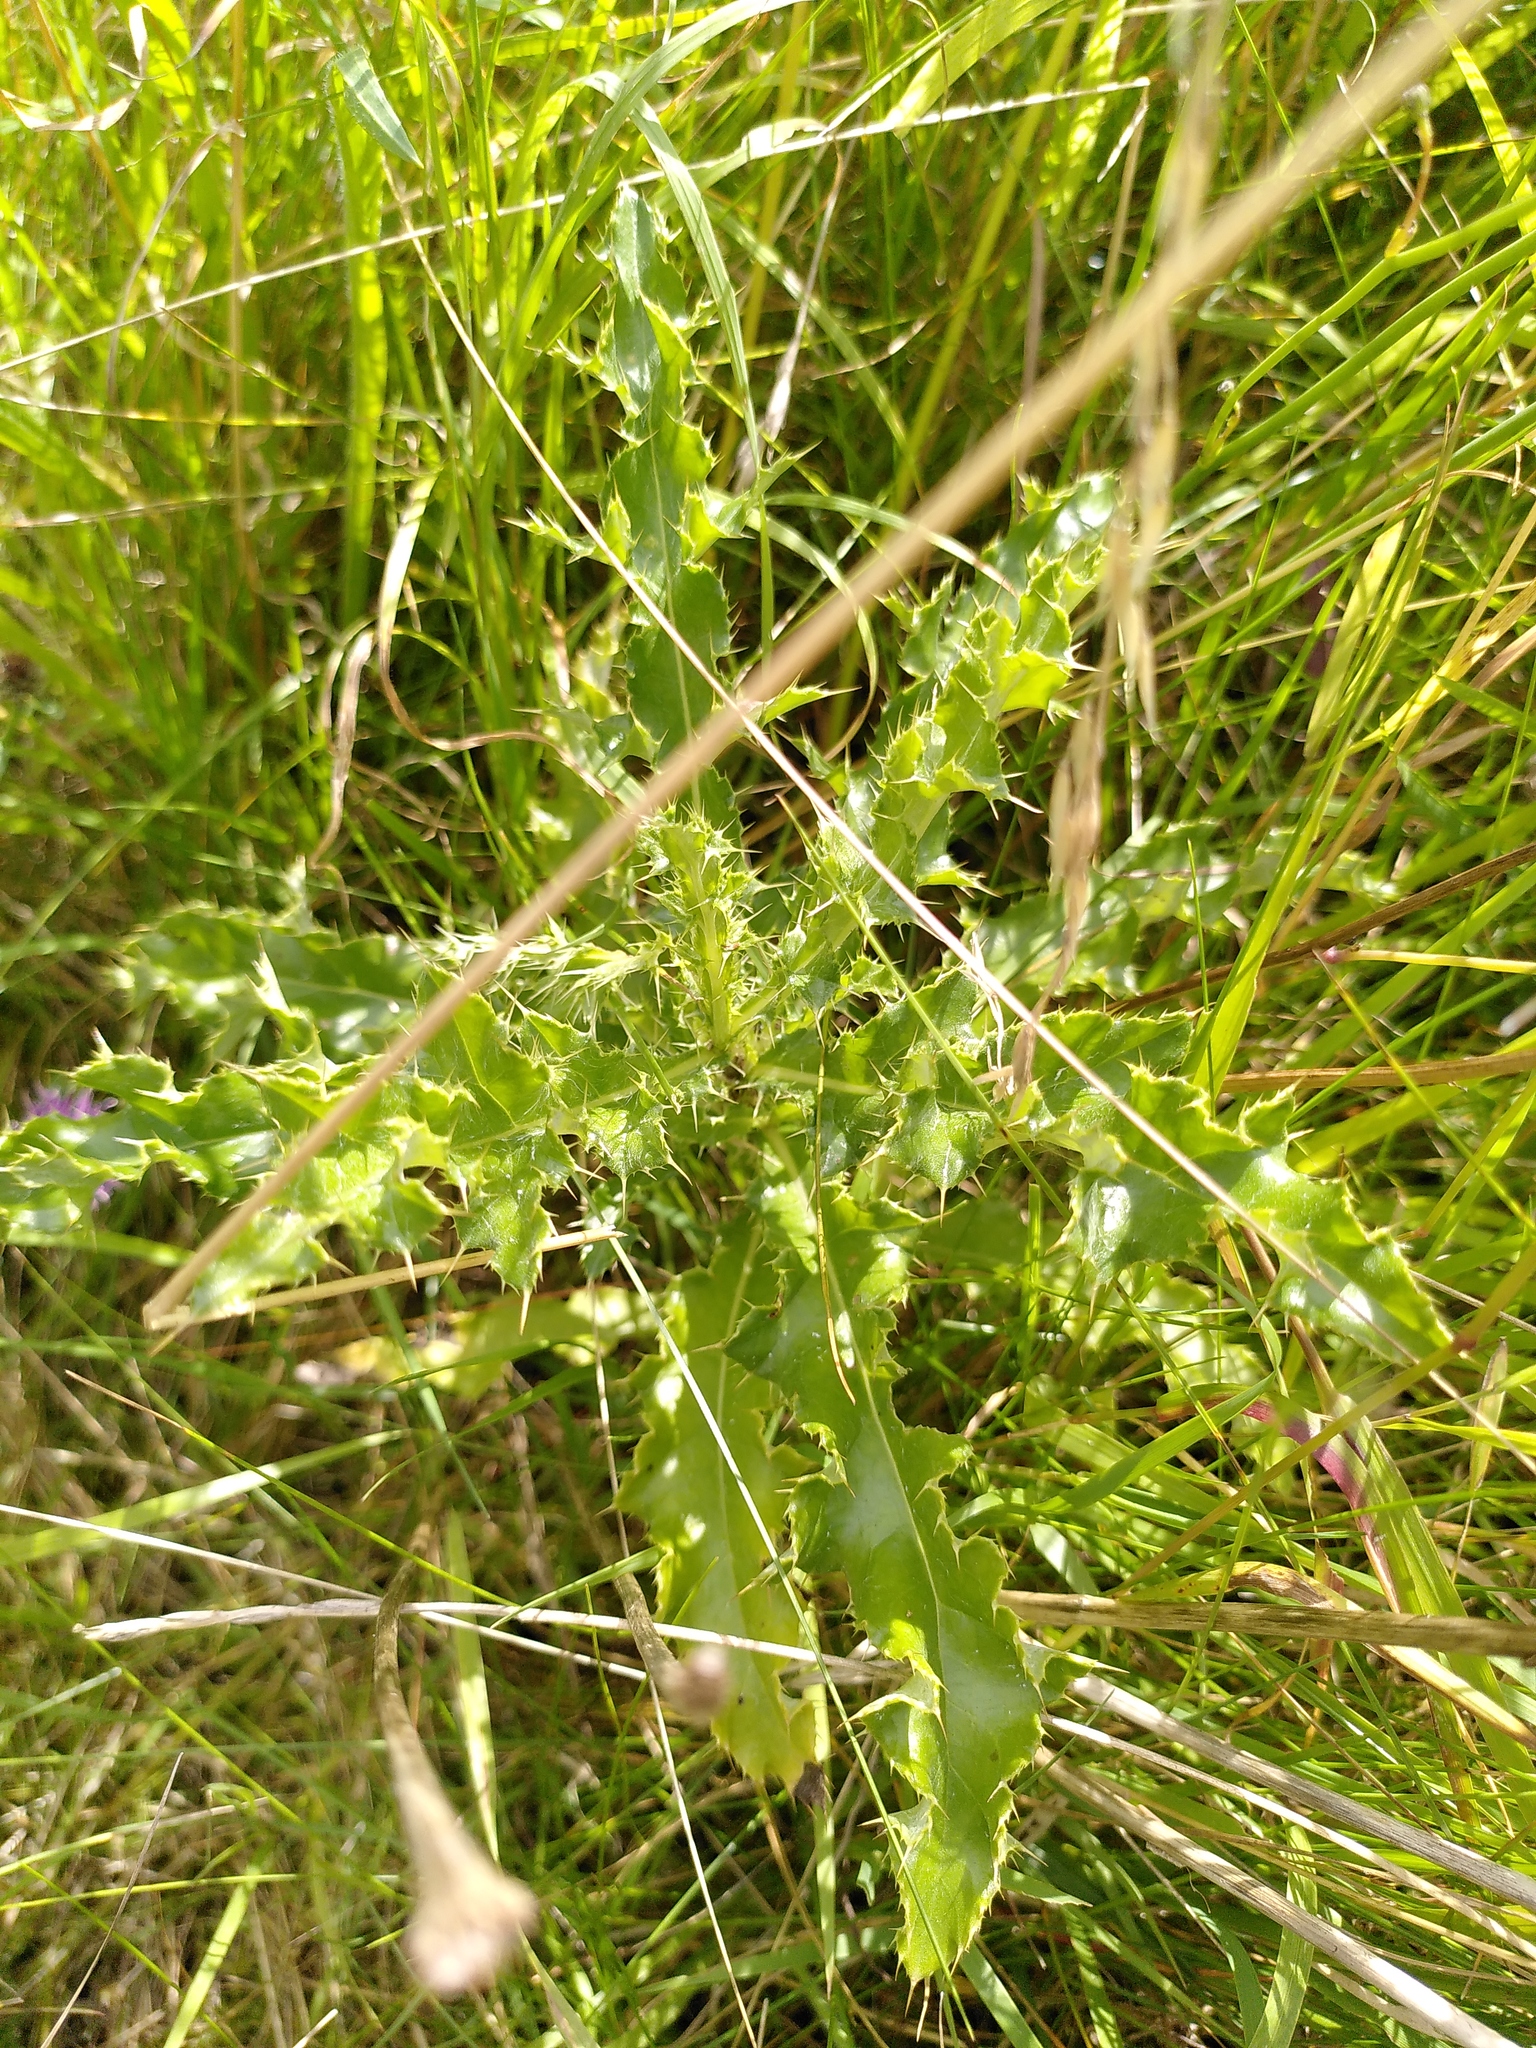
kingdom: Plantae
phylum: Tracheophyta
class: Magnoliopsida
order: Asterales
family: Asteraceae
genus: Cirsium
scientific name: Cirsium arvense
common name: Creeping thistle
